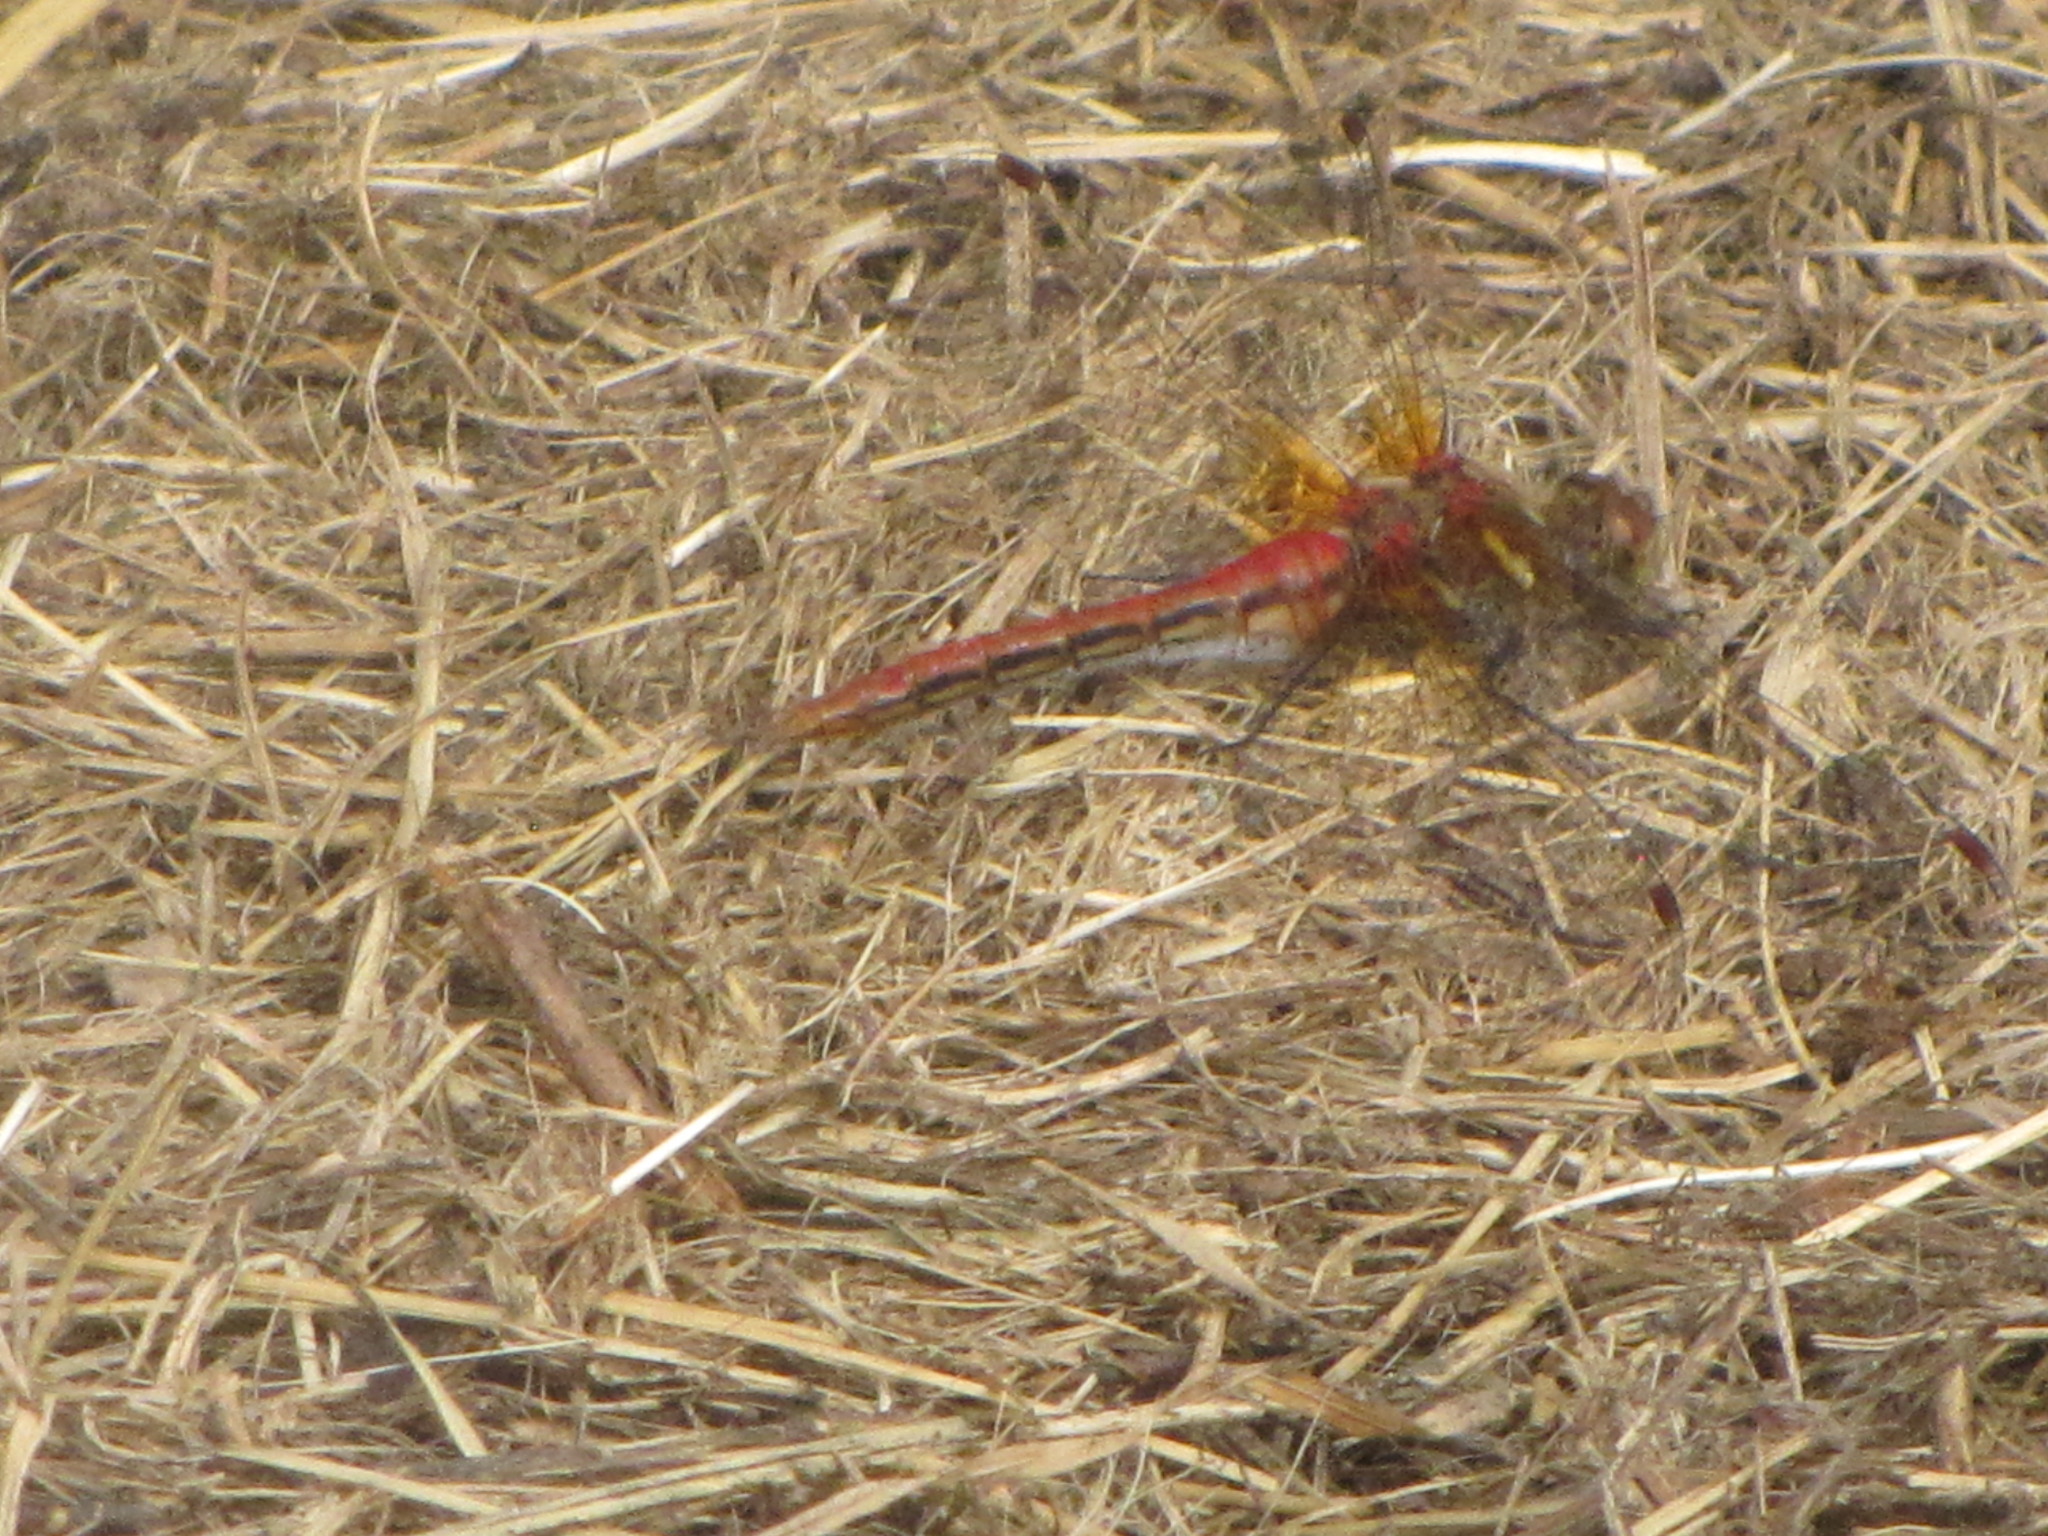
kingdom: Animalia
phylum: Arthropoda
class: Insecta
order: Odonata
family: Libellulidae
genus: Sympetrum
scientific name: Sympetrum pallipes
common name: Striped meadowhawk
